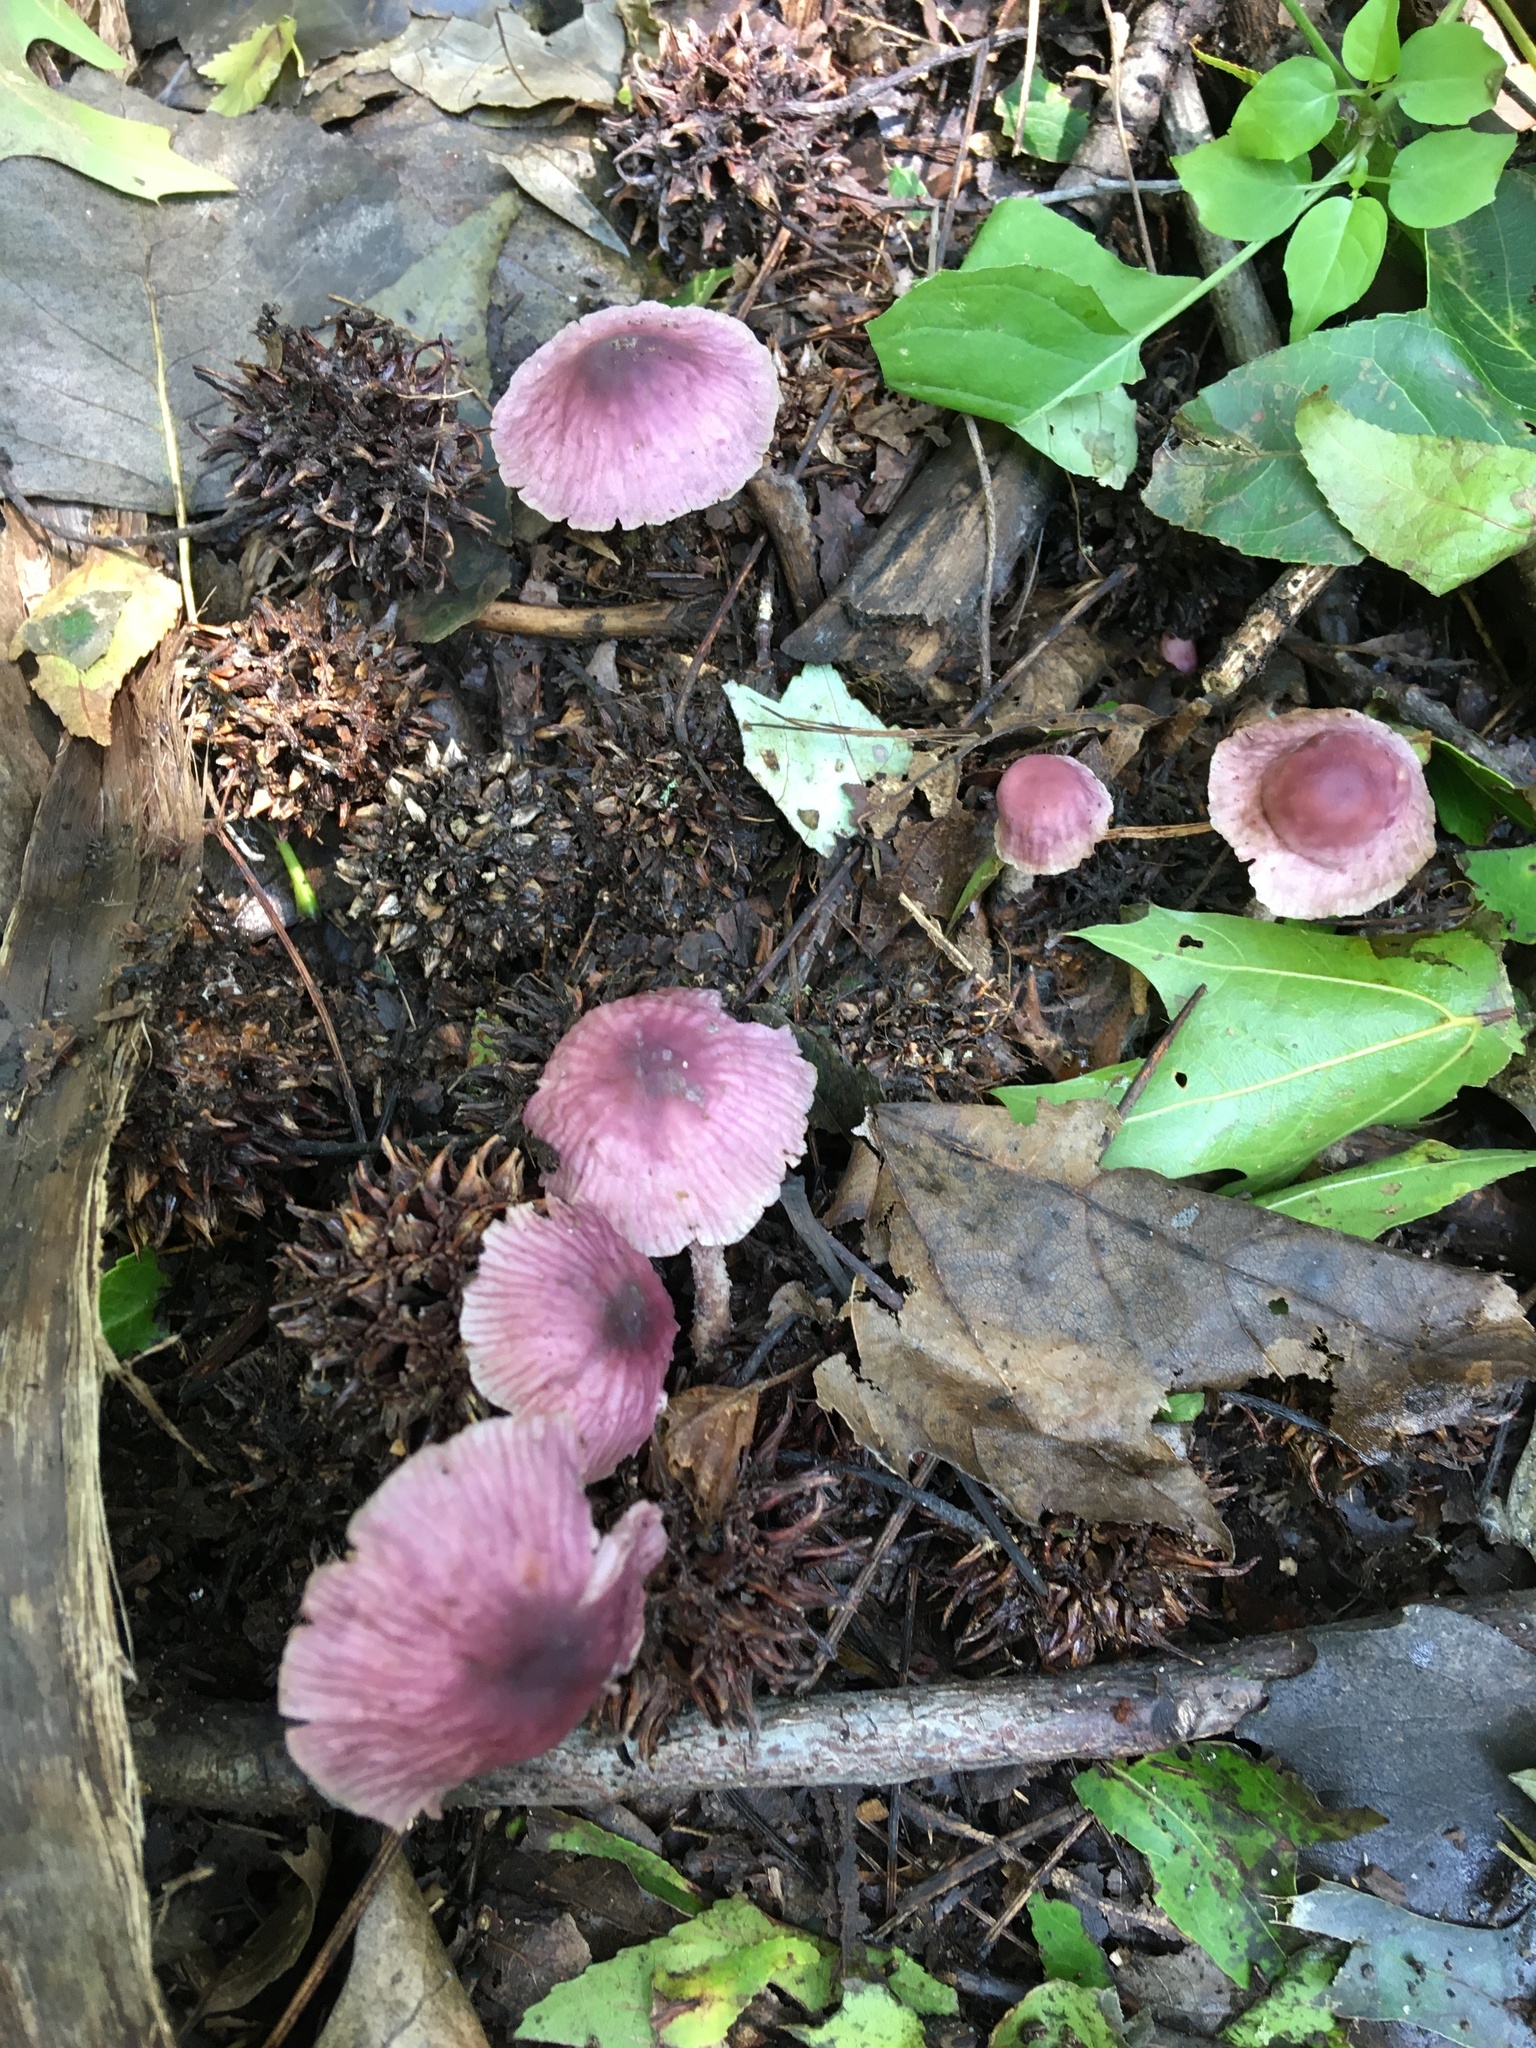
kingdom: Fungi
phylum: Basidiomycota
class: Agaricomycetes
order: Agaricales
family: Omphalotaceae
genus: Gymnopus
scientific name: Gymnopus iocephalus
